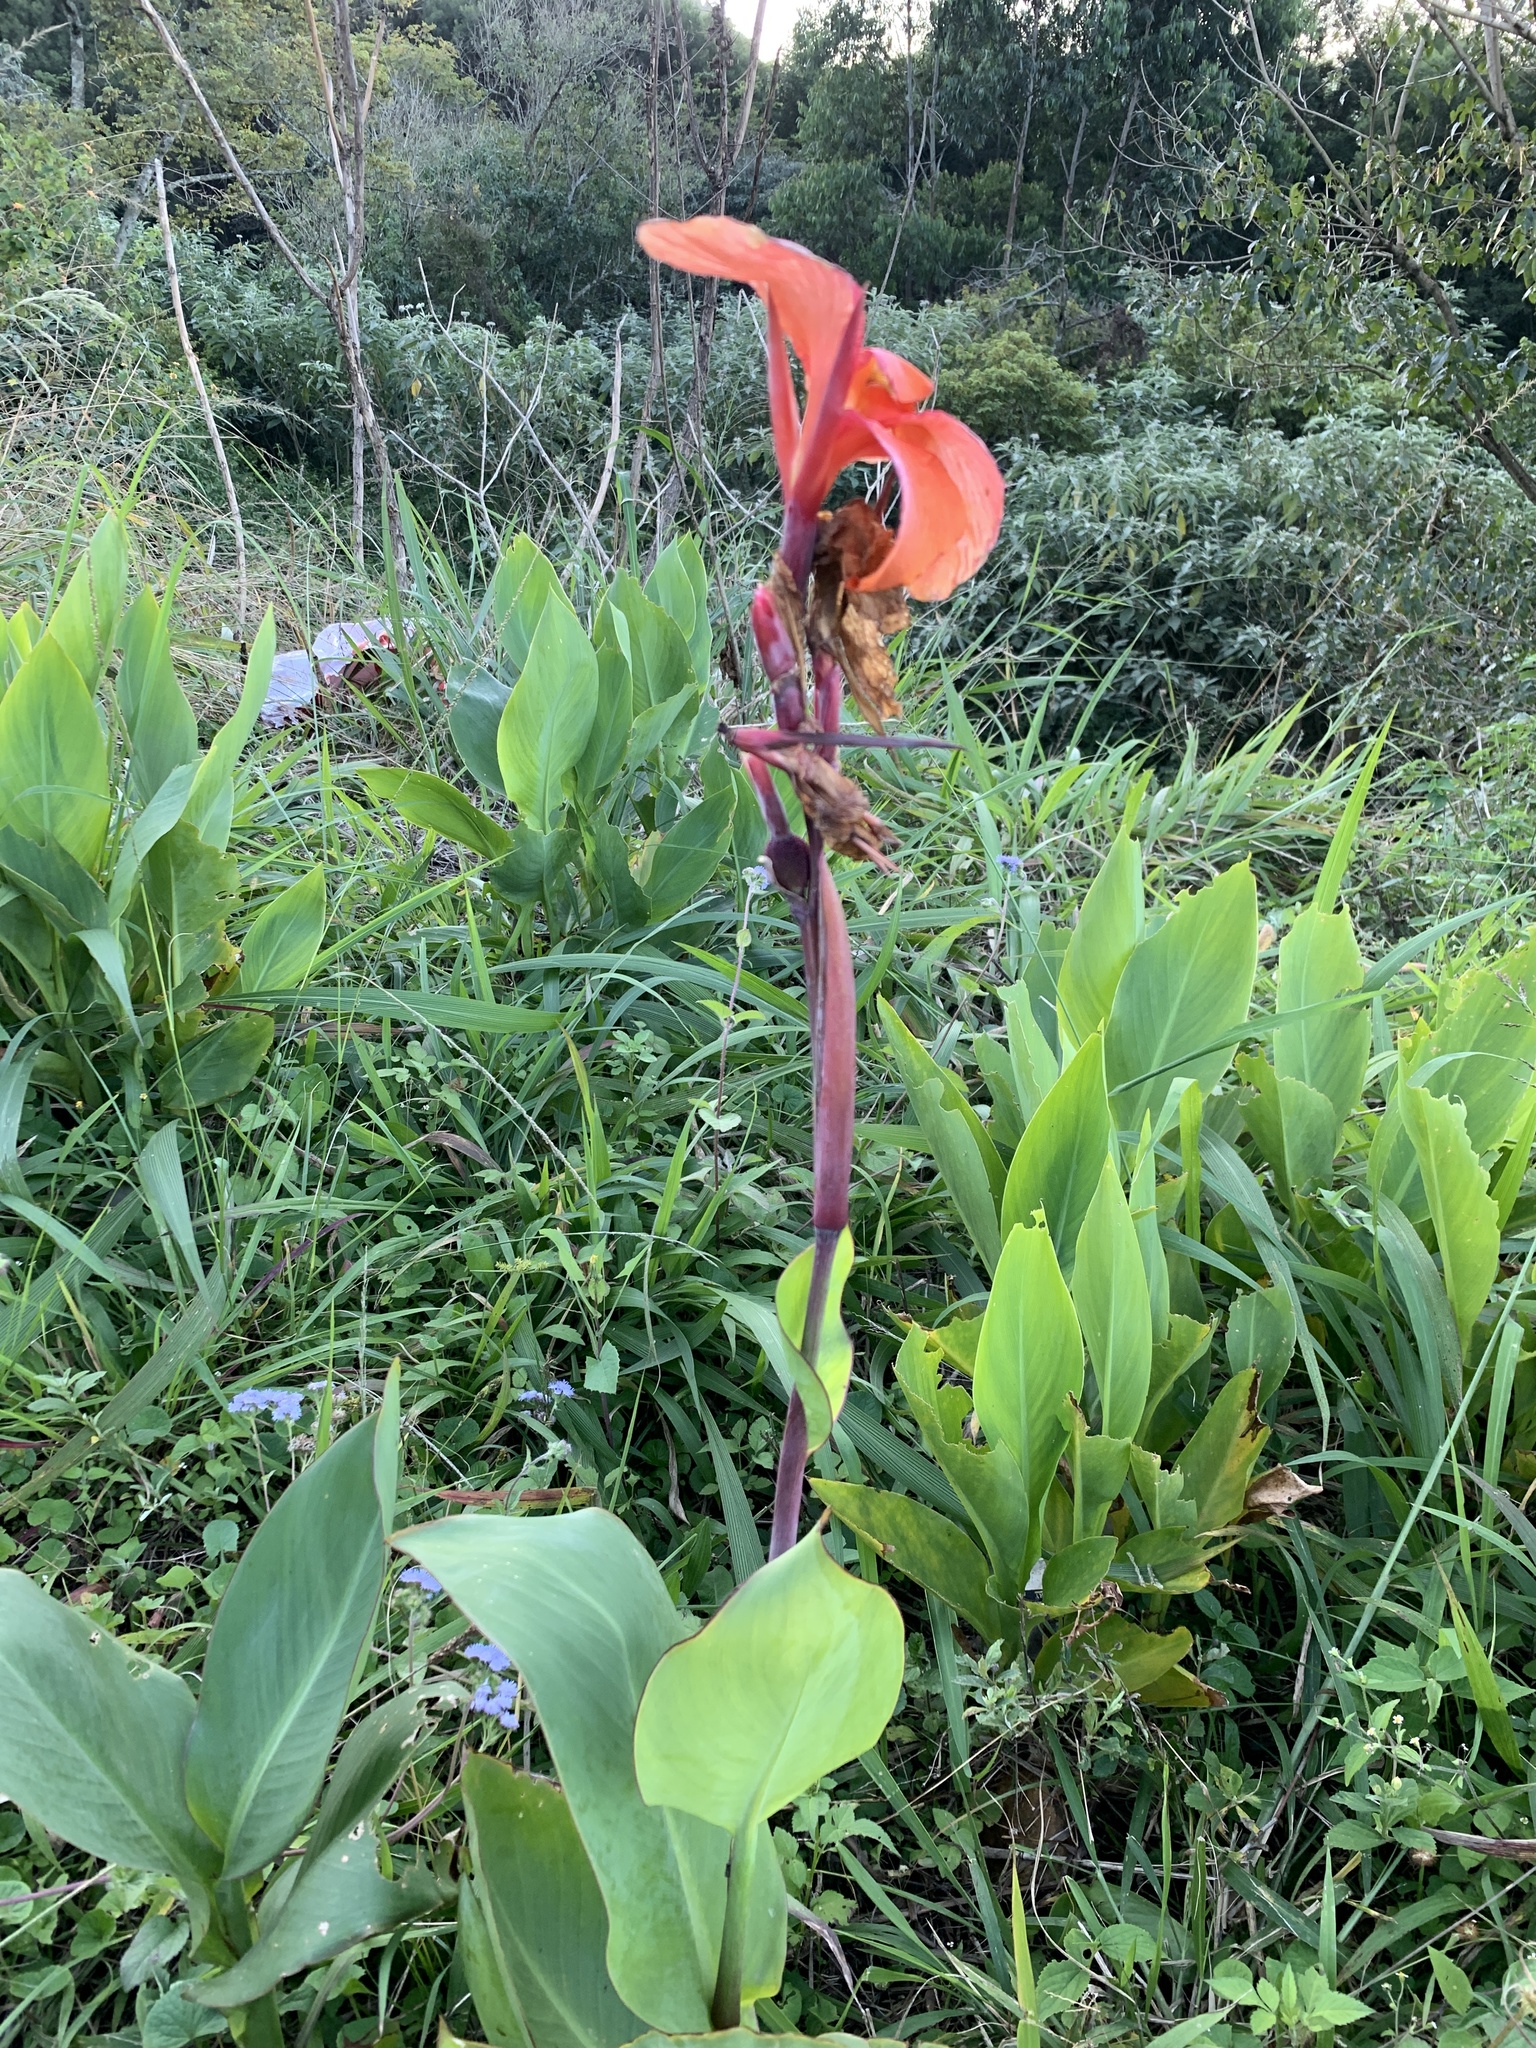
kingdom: Plantae
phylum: Tracheophyta
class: Liliopsida
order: Zingiberales
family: Cannaceae
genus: Canna
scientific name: Canna hybrida
